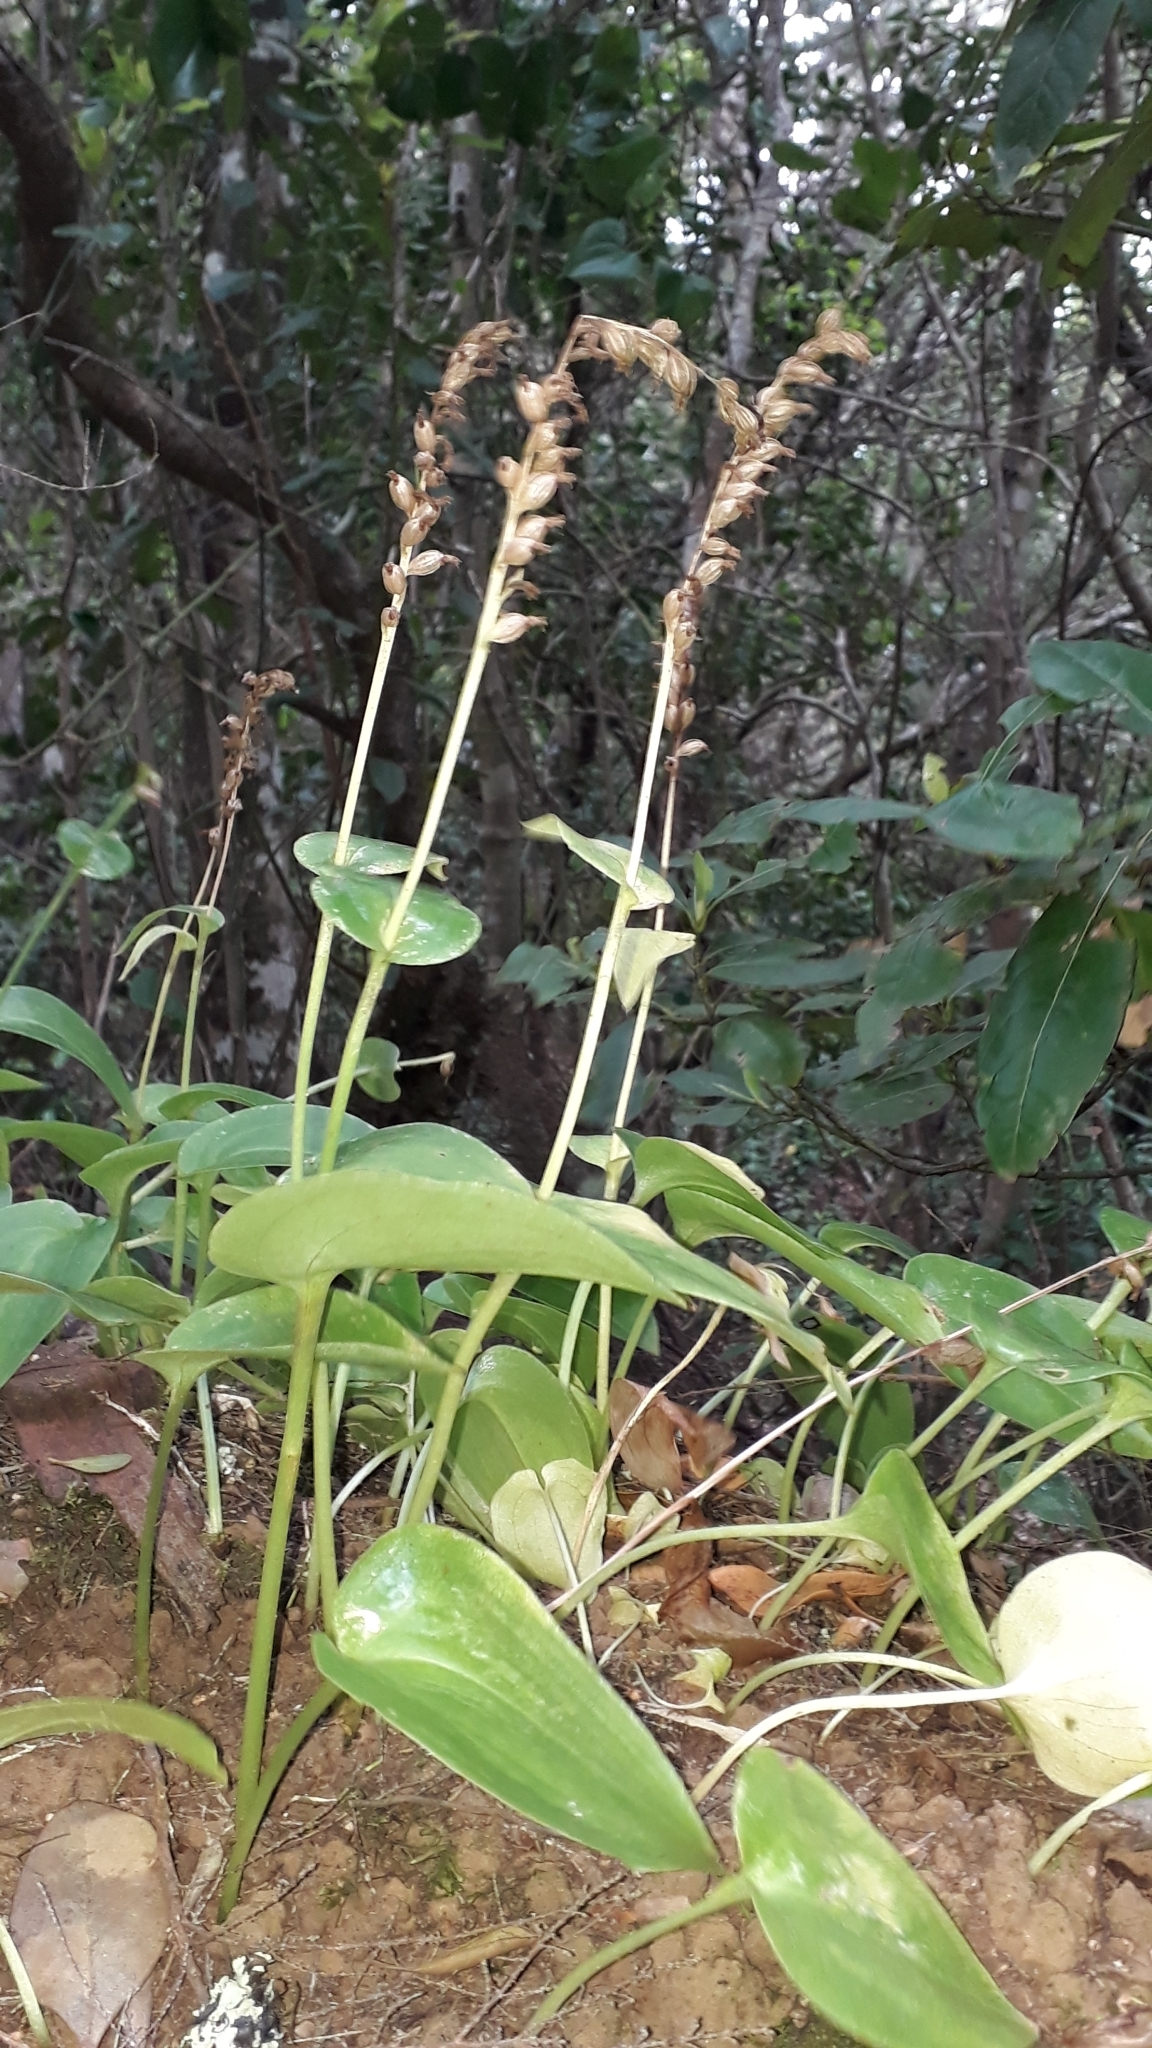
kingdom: Plantae
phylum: Tracheophyta
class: Liliopsida
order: Asparagales
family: Orchidaceae
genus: Gennaria
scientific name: Gennaria diphylla
